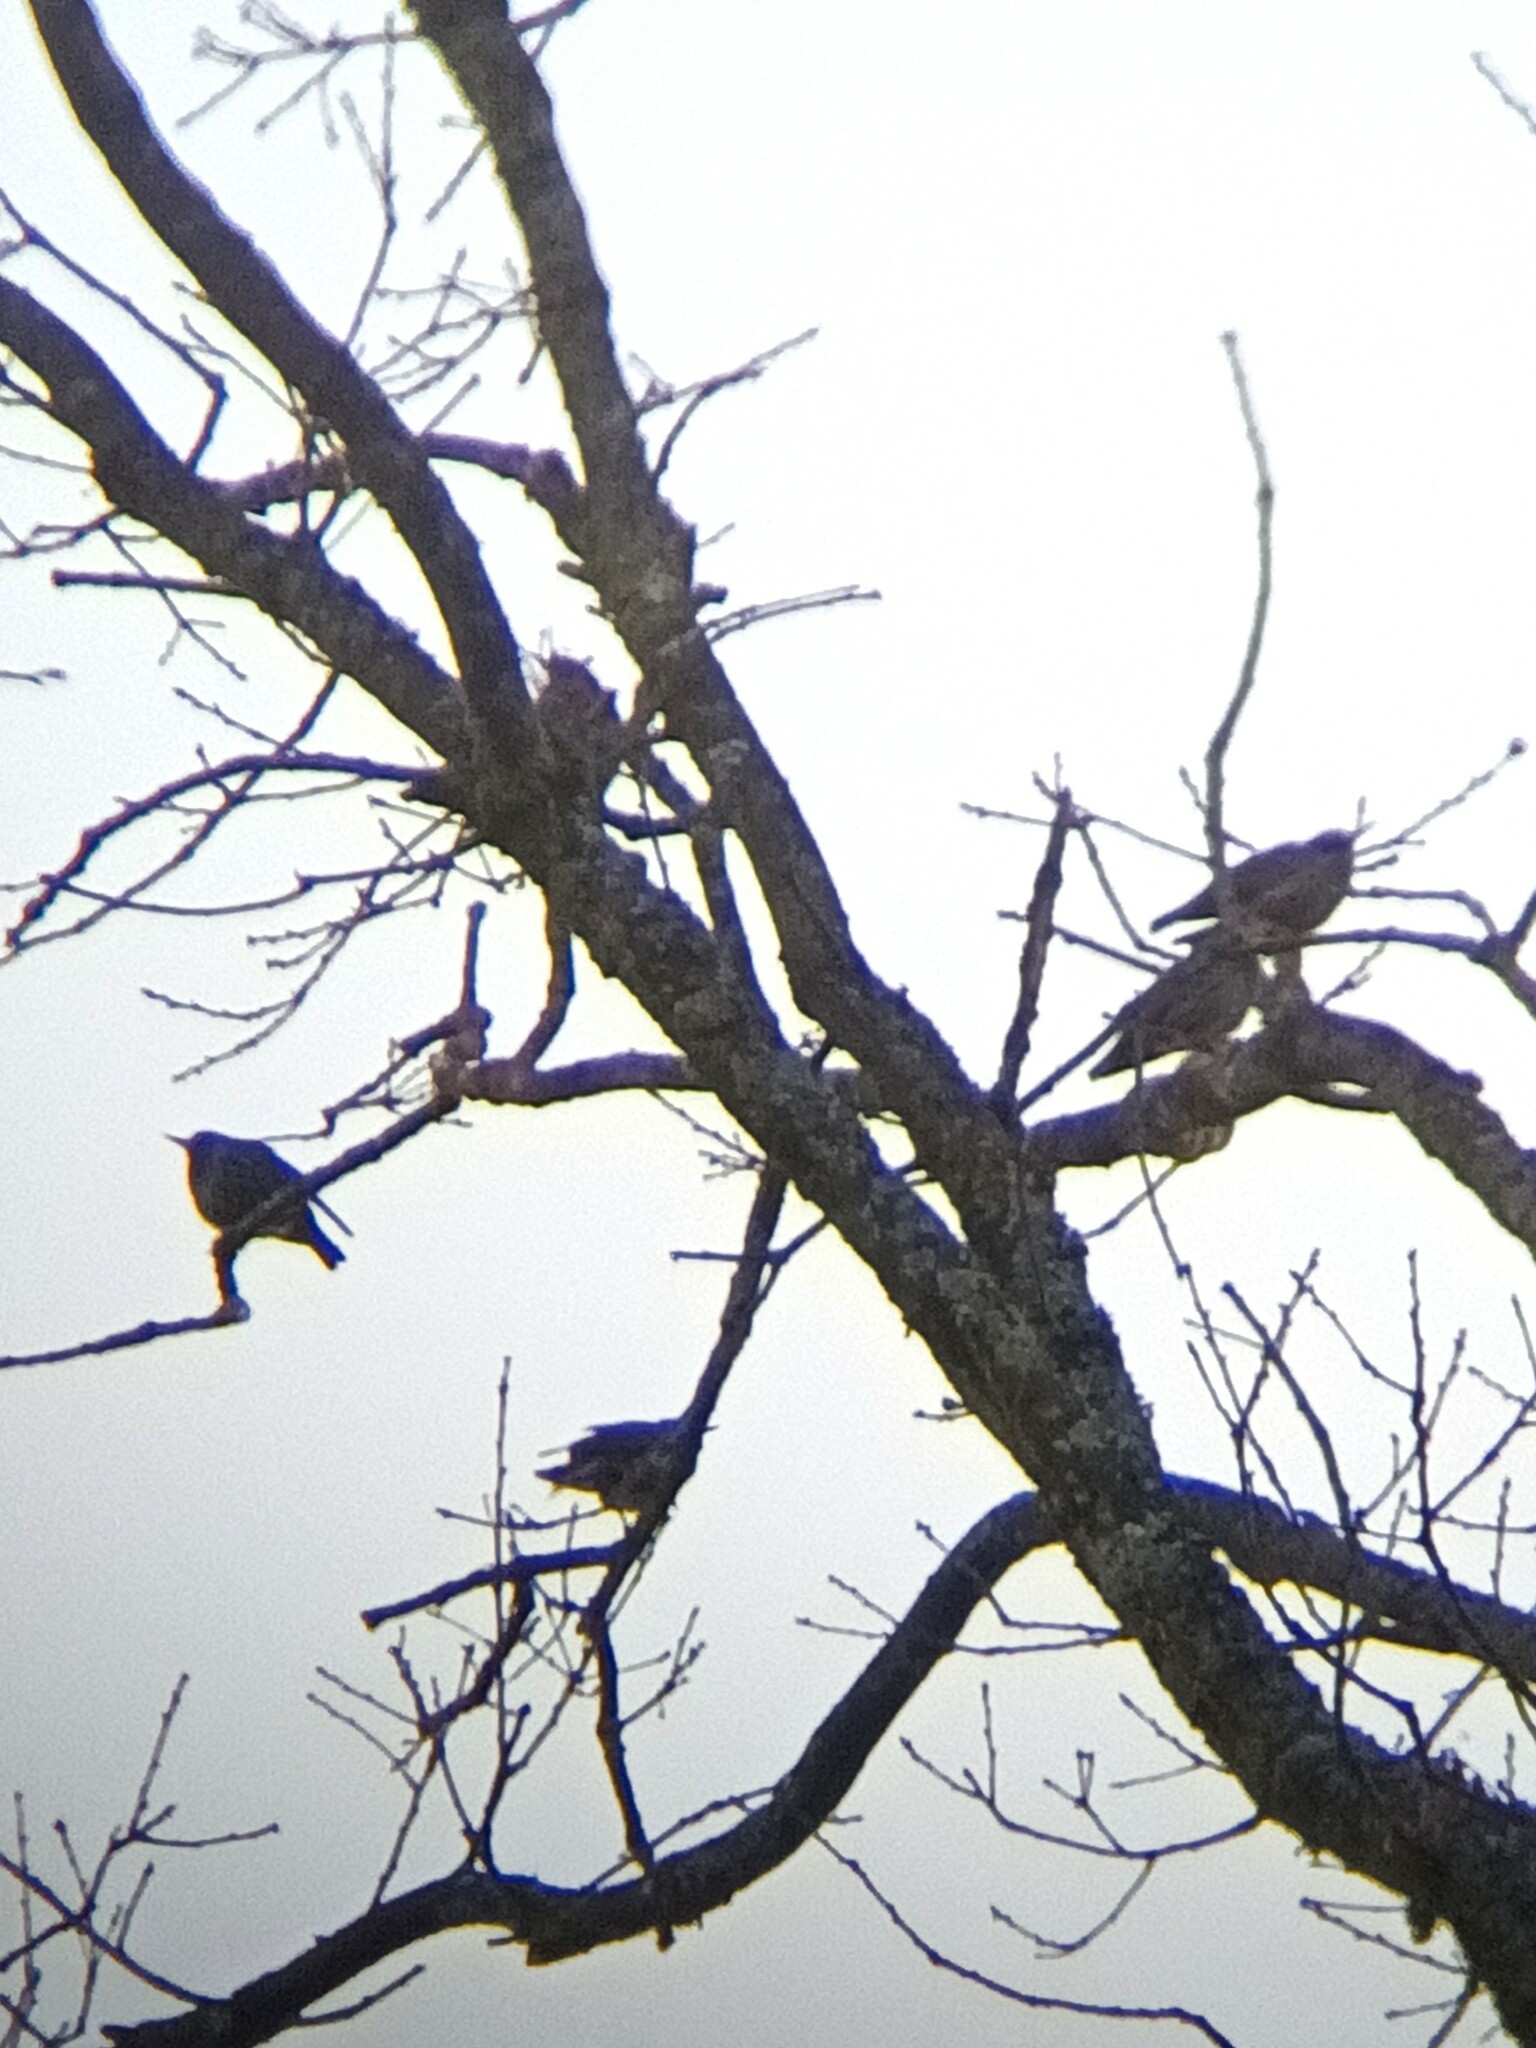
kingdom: Animalia
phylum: Chordata
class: Aves
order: Passeriformes
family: Sturnidae
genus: Sturnus
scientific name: Sturnus vulgaris
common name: Common starling
